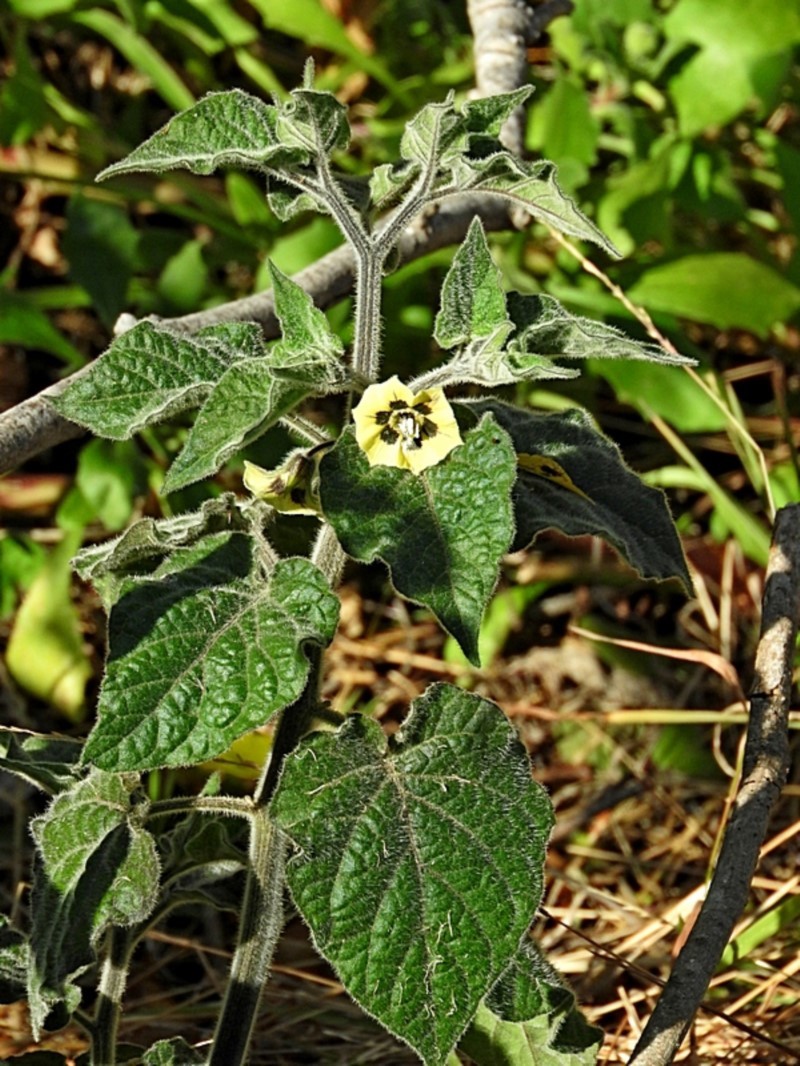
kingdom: Plantae
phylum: Tracheophyta
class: Magnoliopsida
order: Solanales
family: Solanaceae
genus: Physalis
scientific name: Physalis peruviana
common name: Cape-gooseberry
